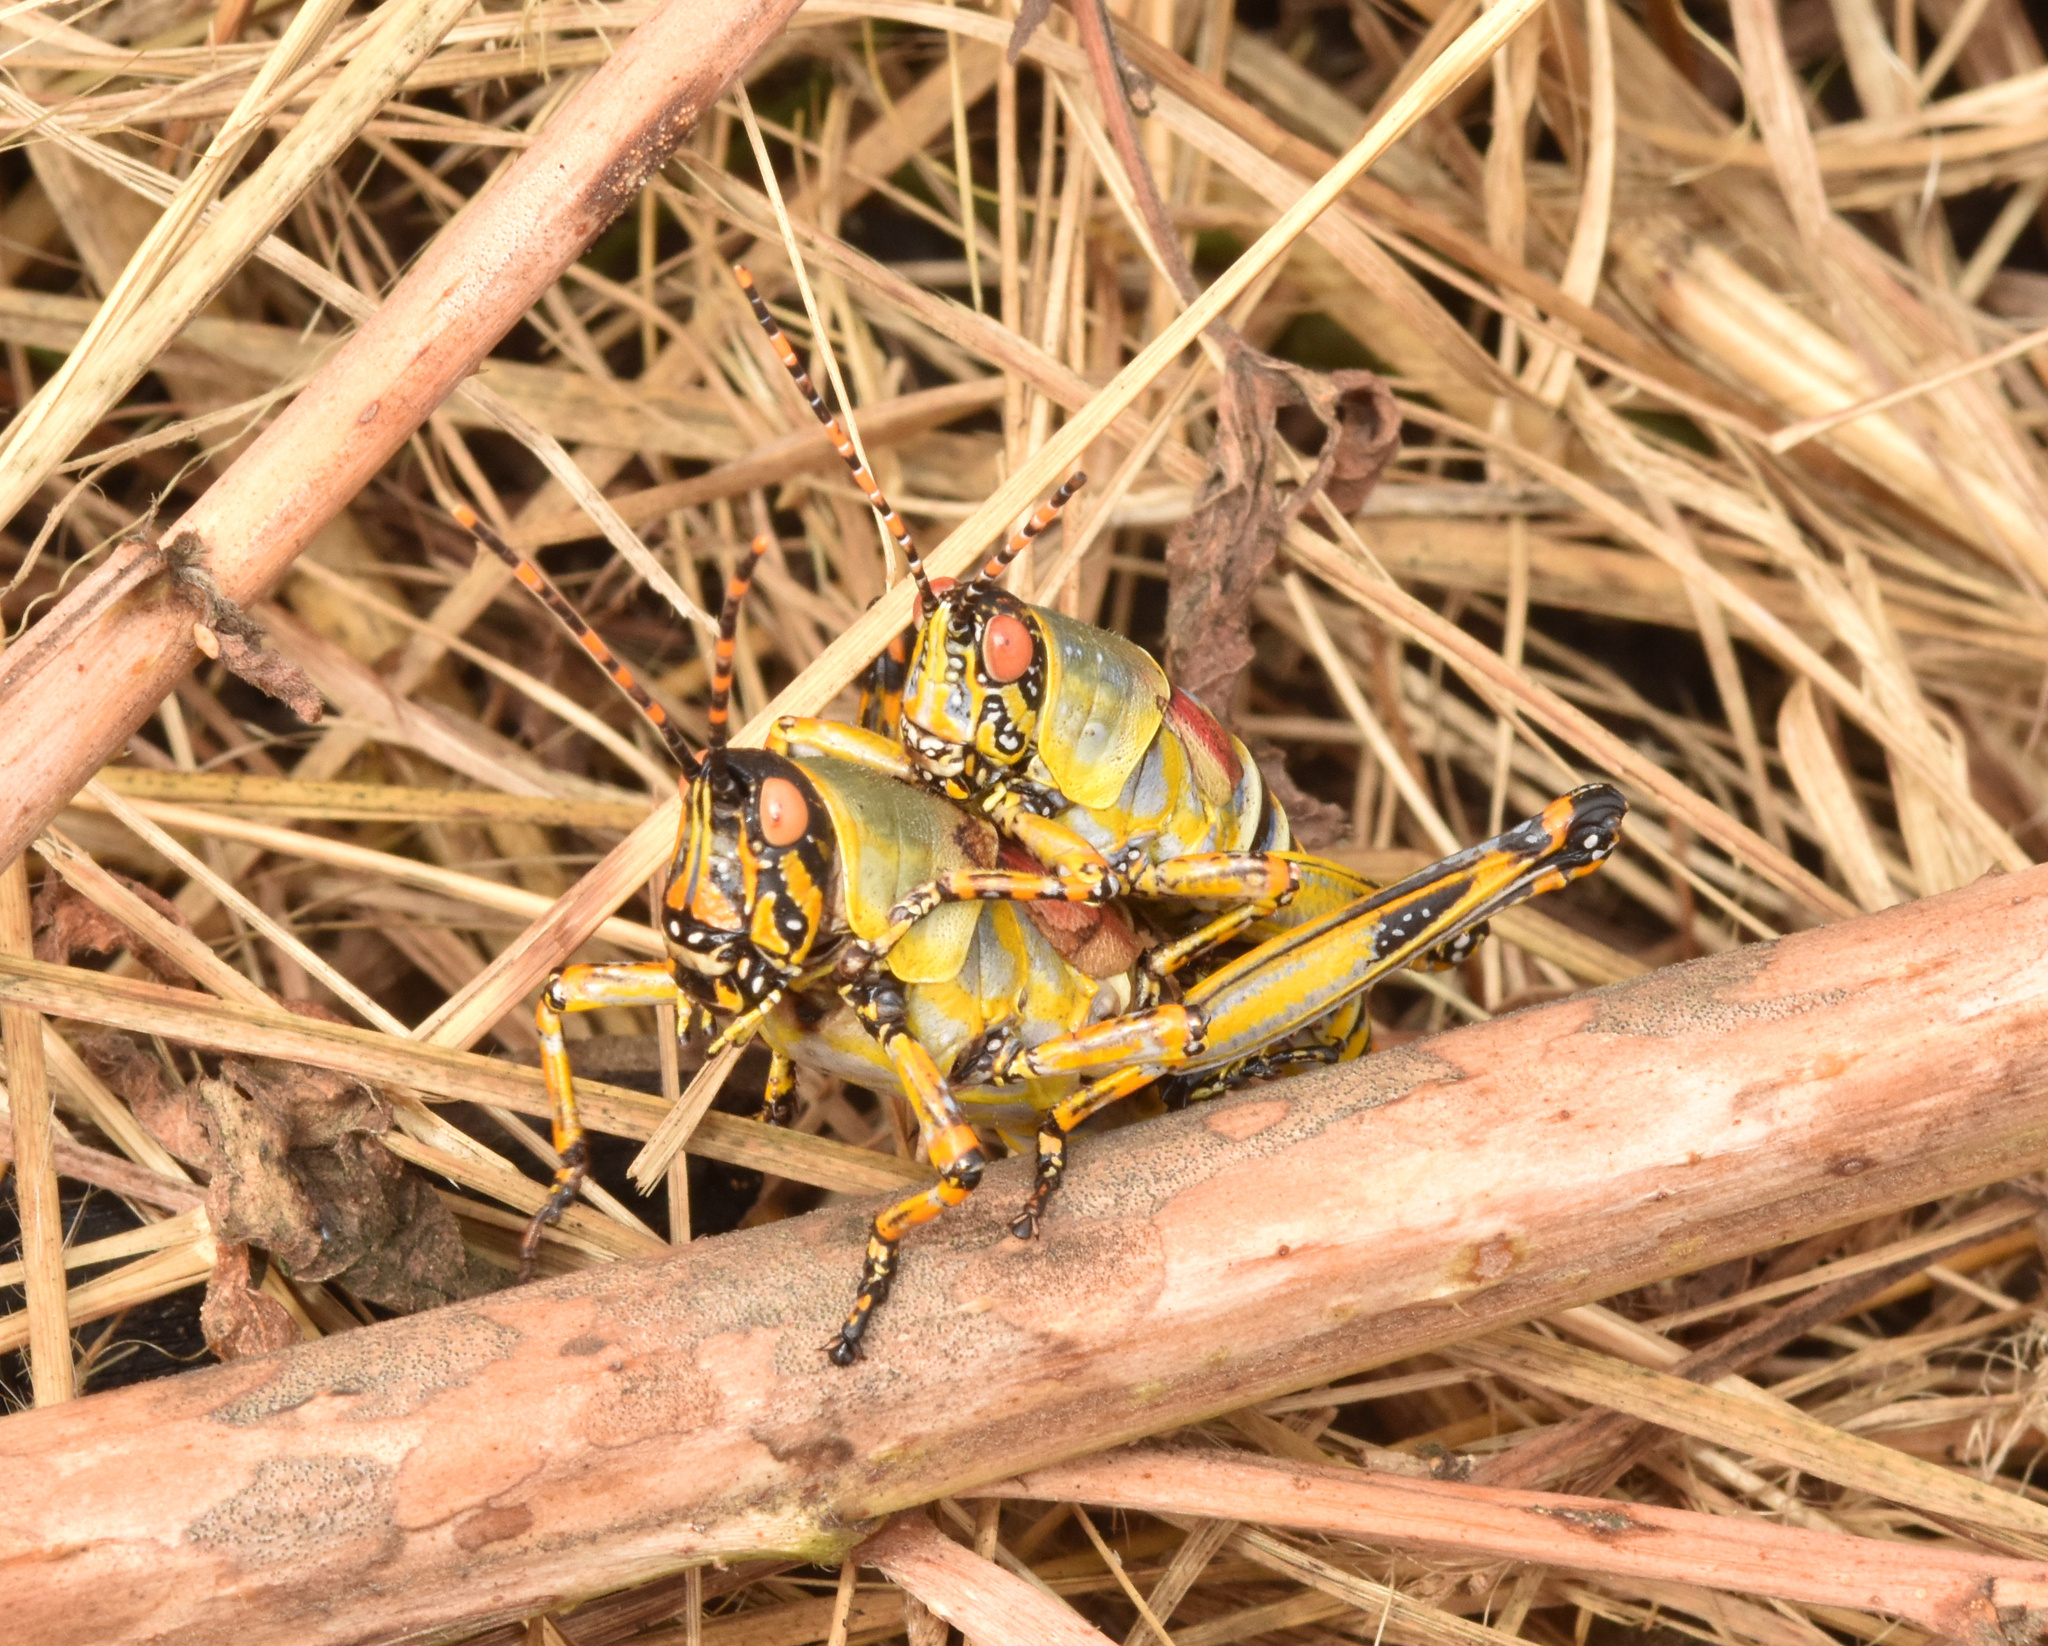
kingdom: Animalia
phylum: Arthropoda
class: Insecta
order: Orthoptera
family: Pyrgomorphidae
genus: Zonocerus
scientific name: Zonocerus elegans
